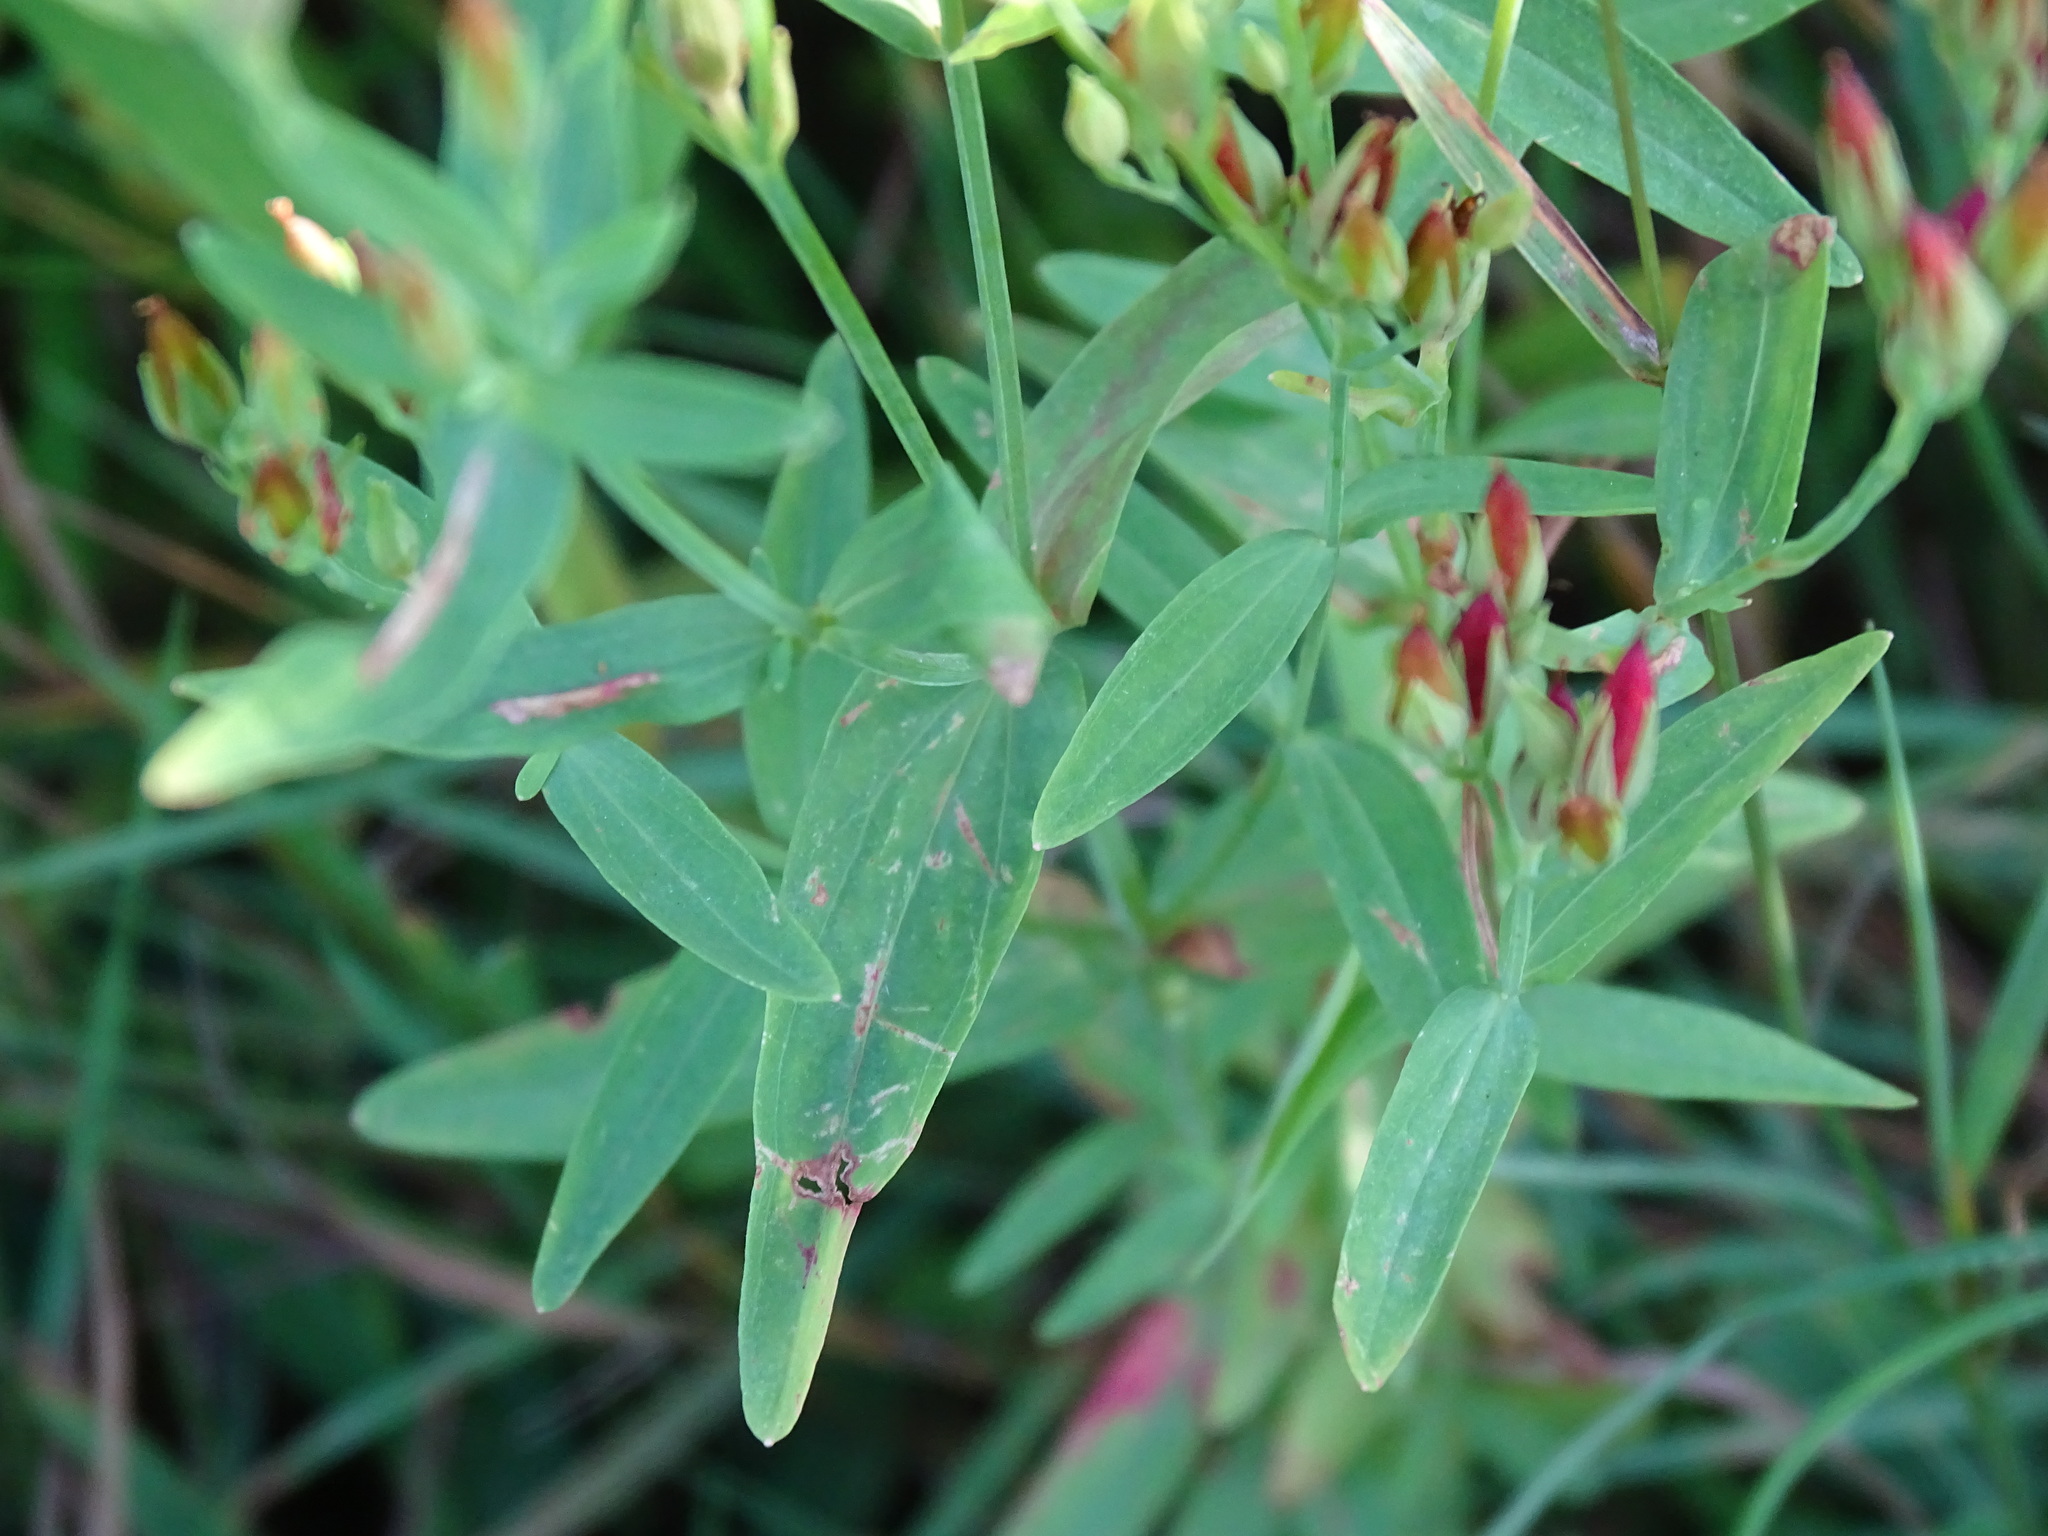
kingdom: Plantae
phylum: Tracheophyta
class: Magnoliopsida
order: Malpighiales
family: Hypericaceae
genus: Hypericum
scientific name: Hypericum majus
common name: Greater canadian st. john's-wort
